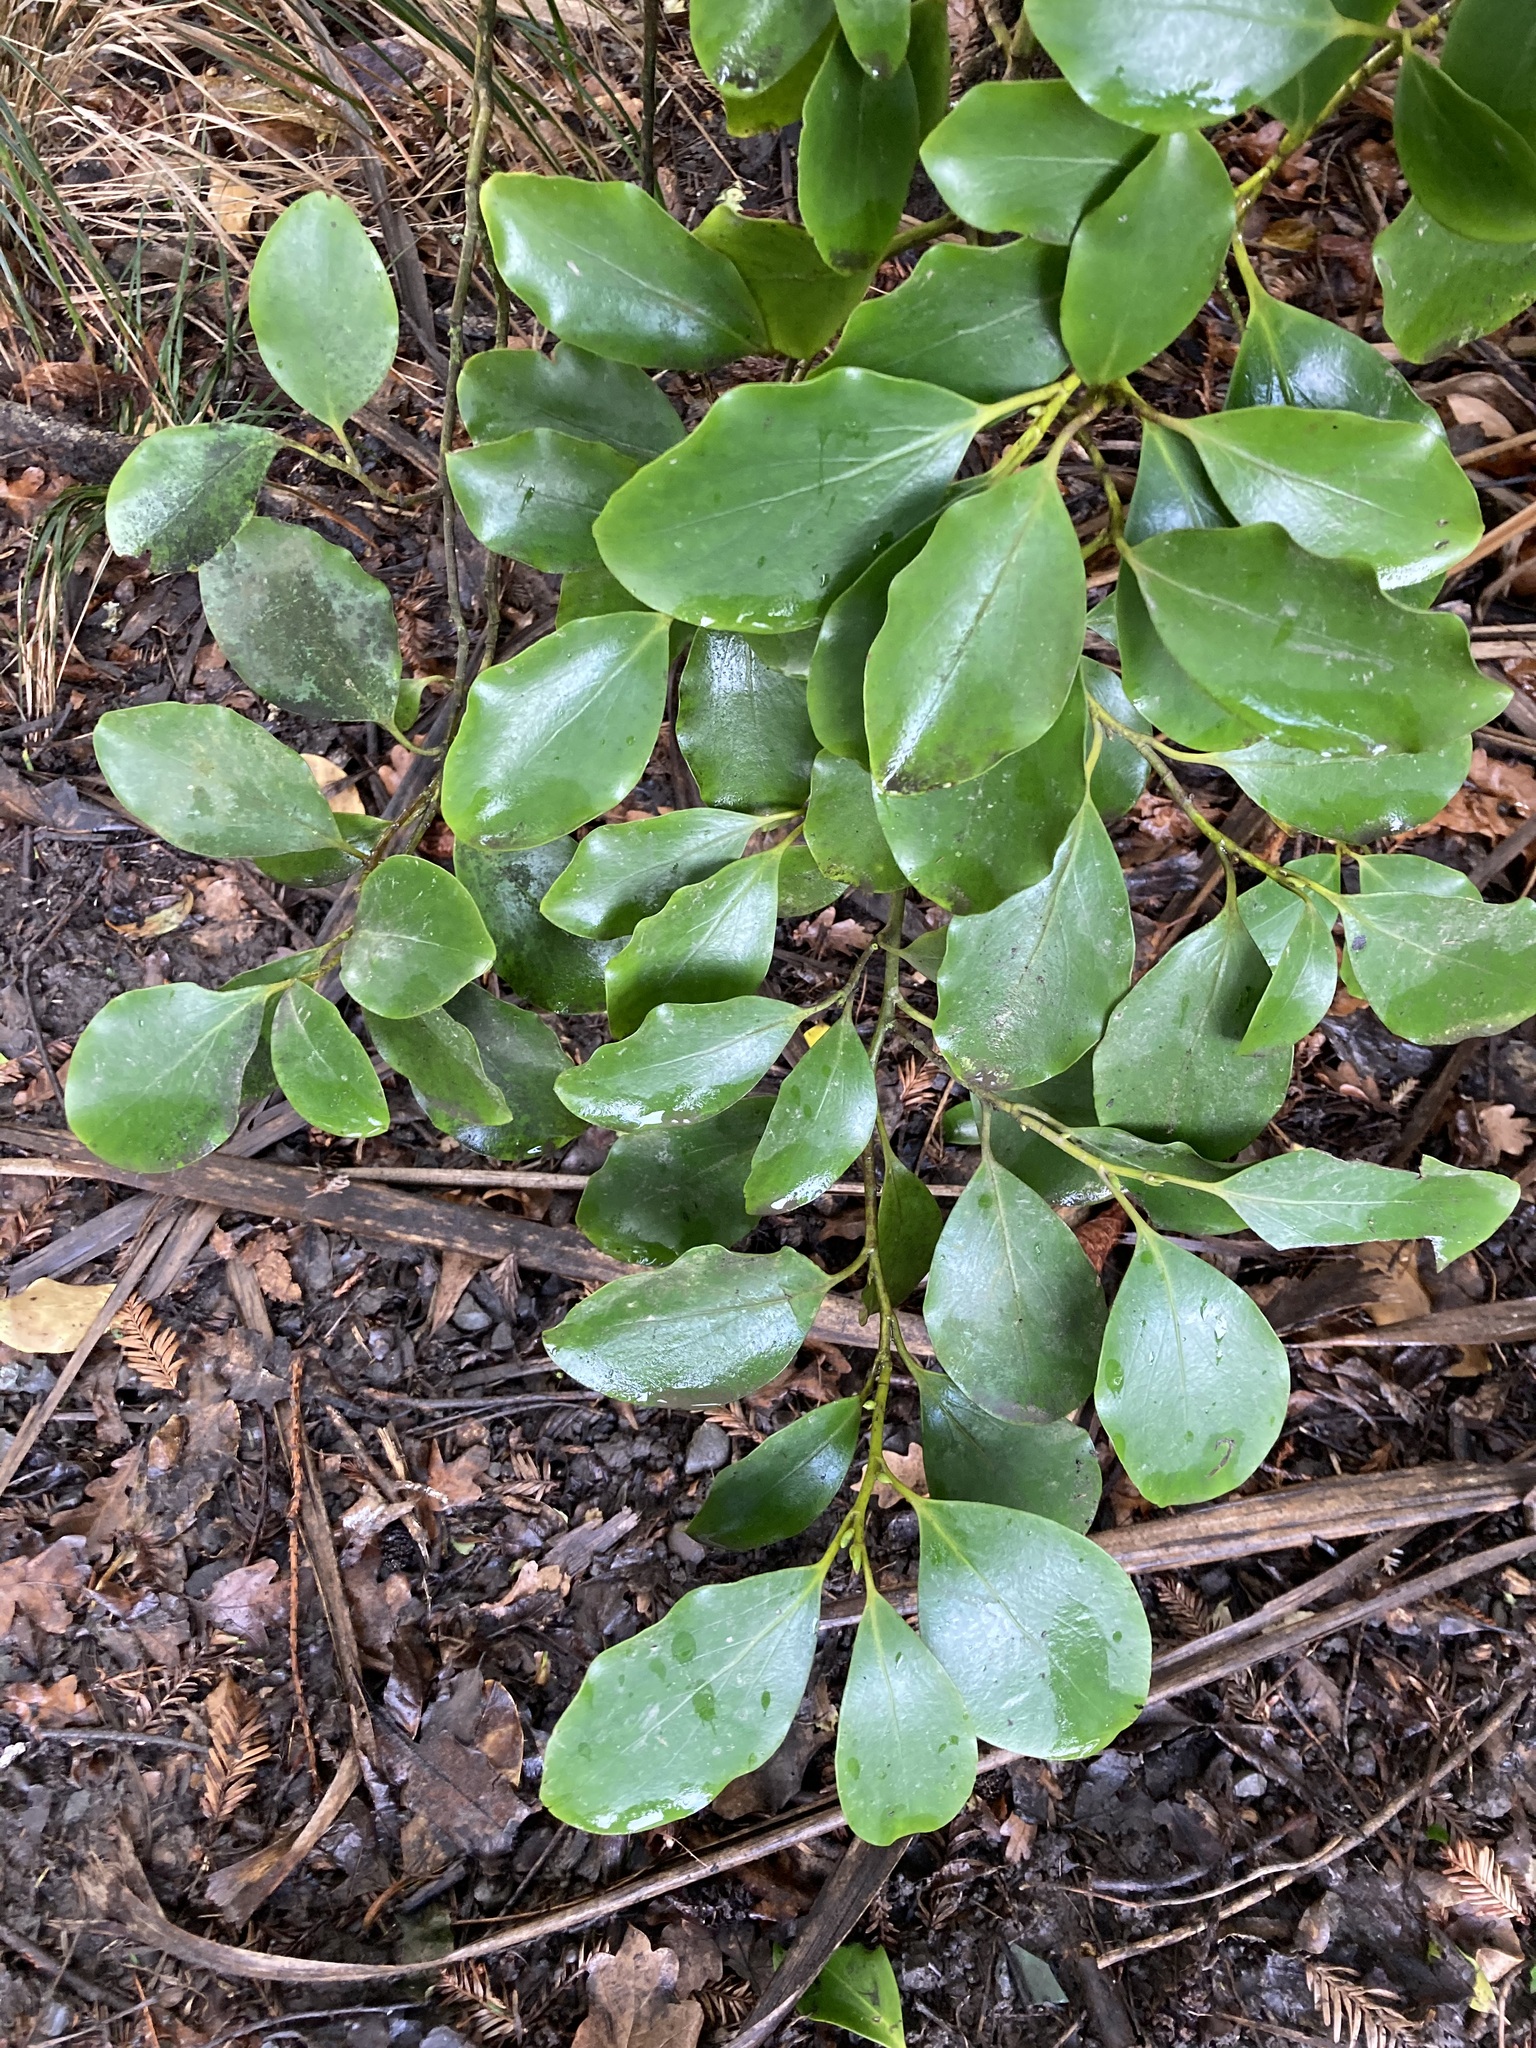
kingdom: Plantae
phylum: Tracheophyta
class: Magnoliopsida
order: Apiales
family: Griseliniaceae
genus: Griselinia
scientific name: Griselinia littoralis
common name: New zealand broadleaf
